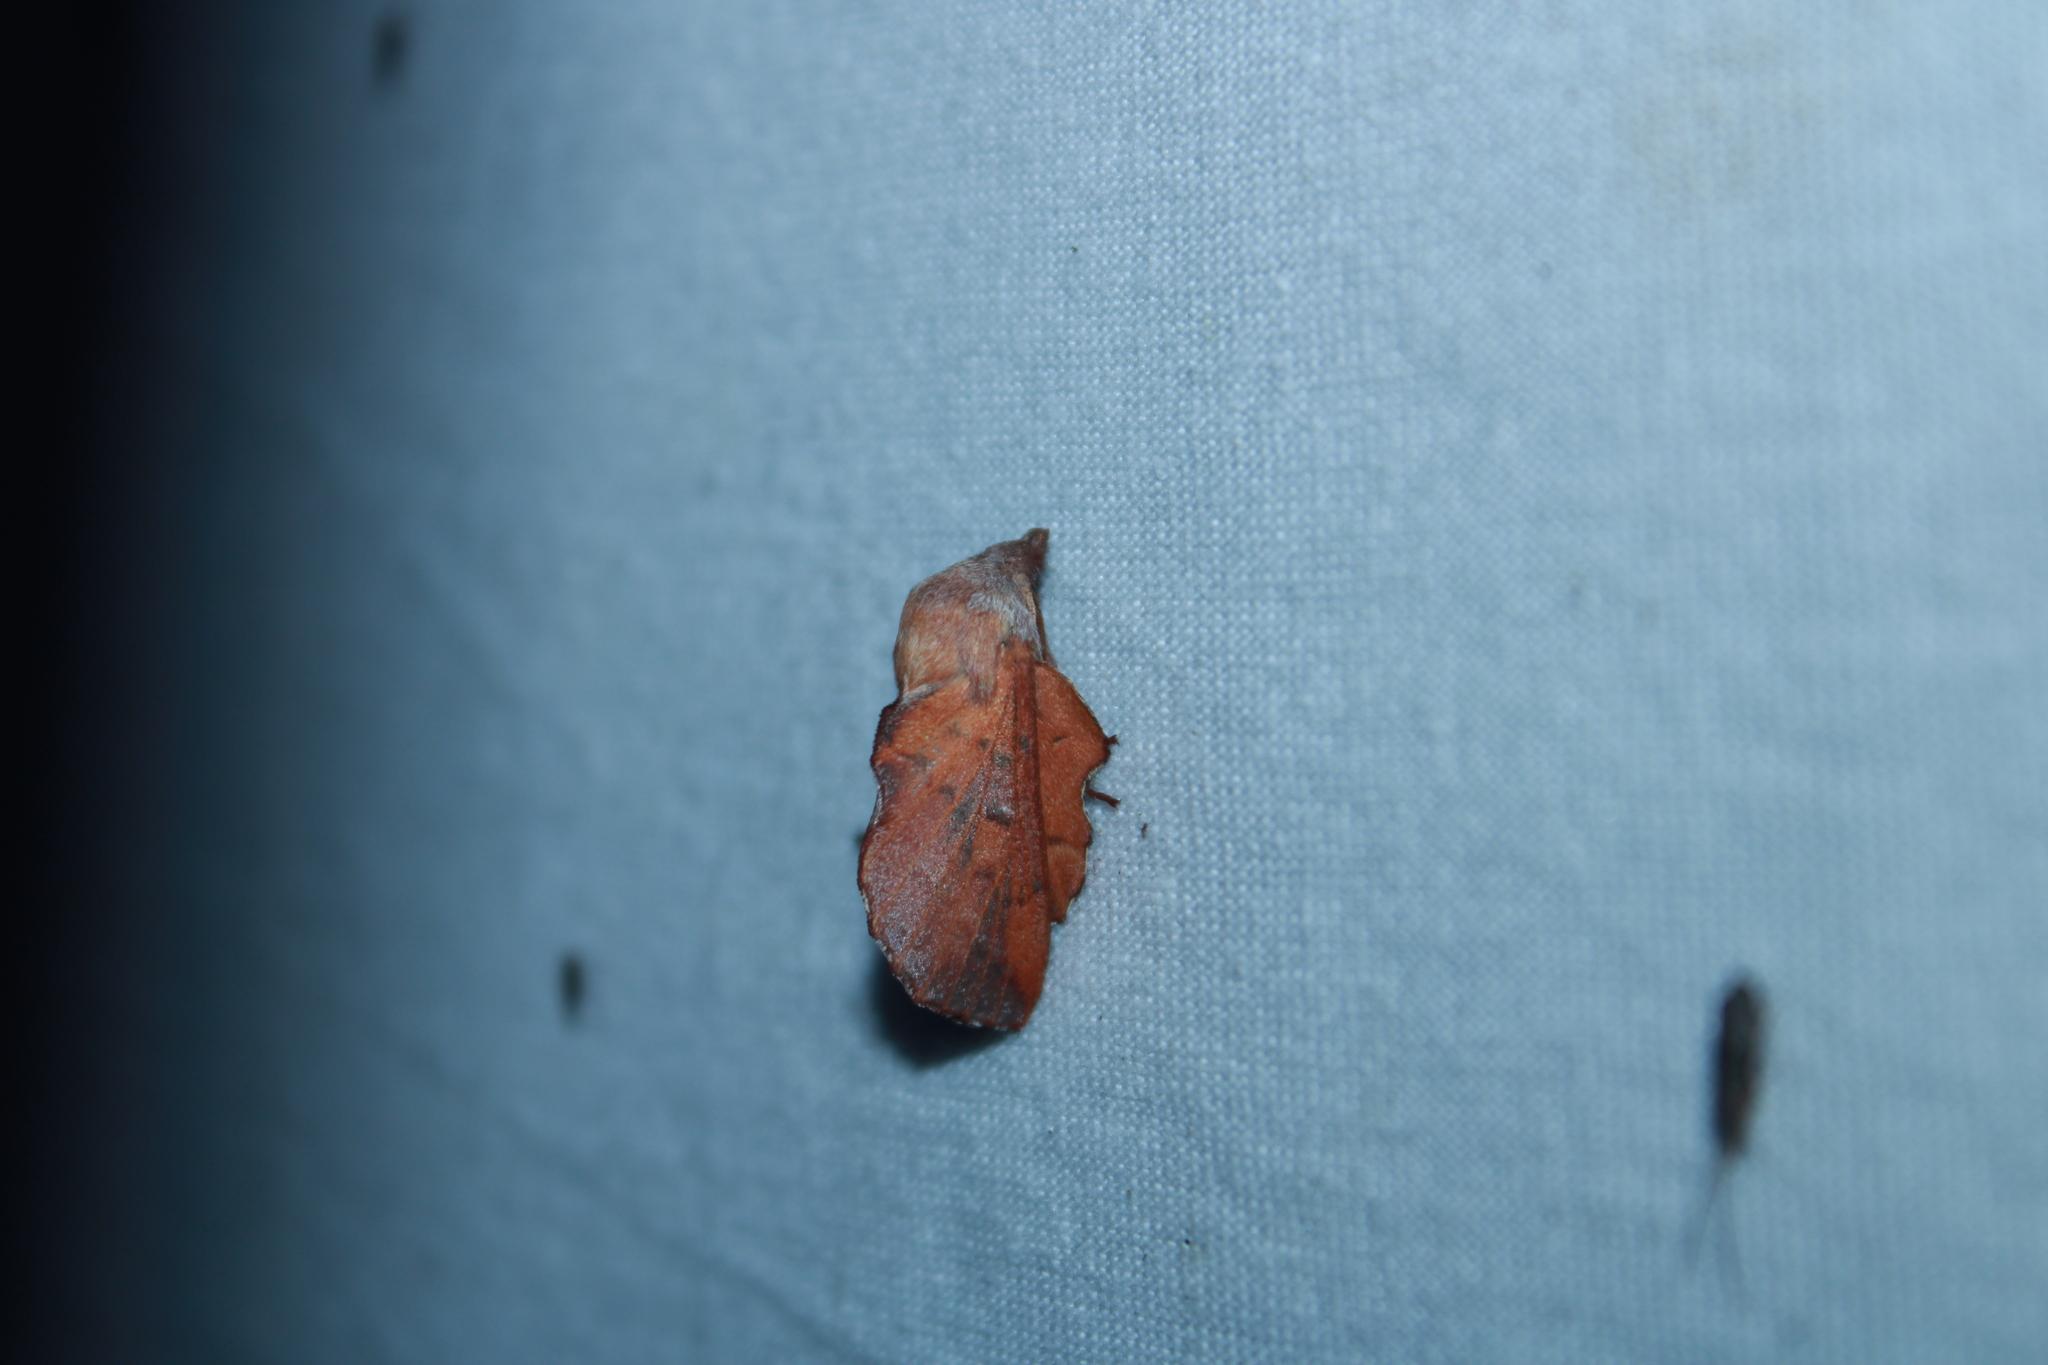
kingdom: Animalia
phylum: Arthropoda
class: Insecta
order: Lepidoptera
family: Lasiocampidae
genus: Phyllodesma
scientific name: Phyllodesma americana
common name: American lappet moth
